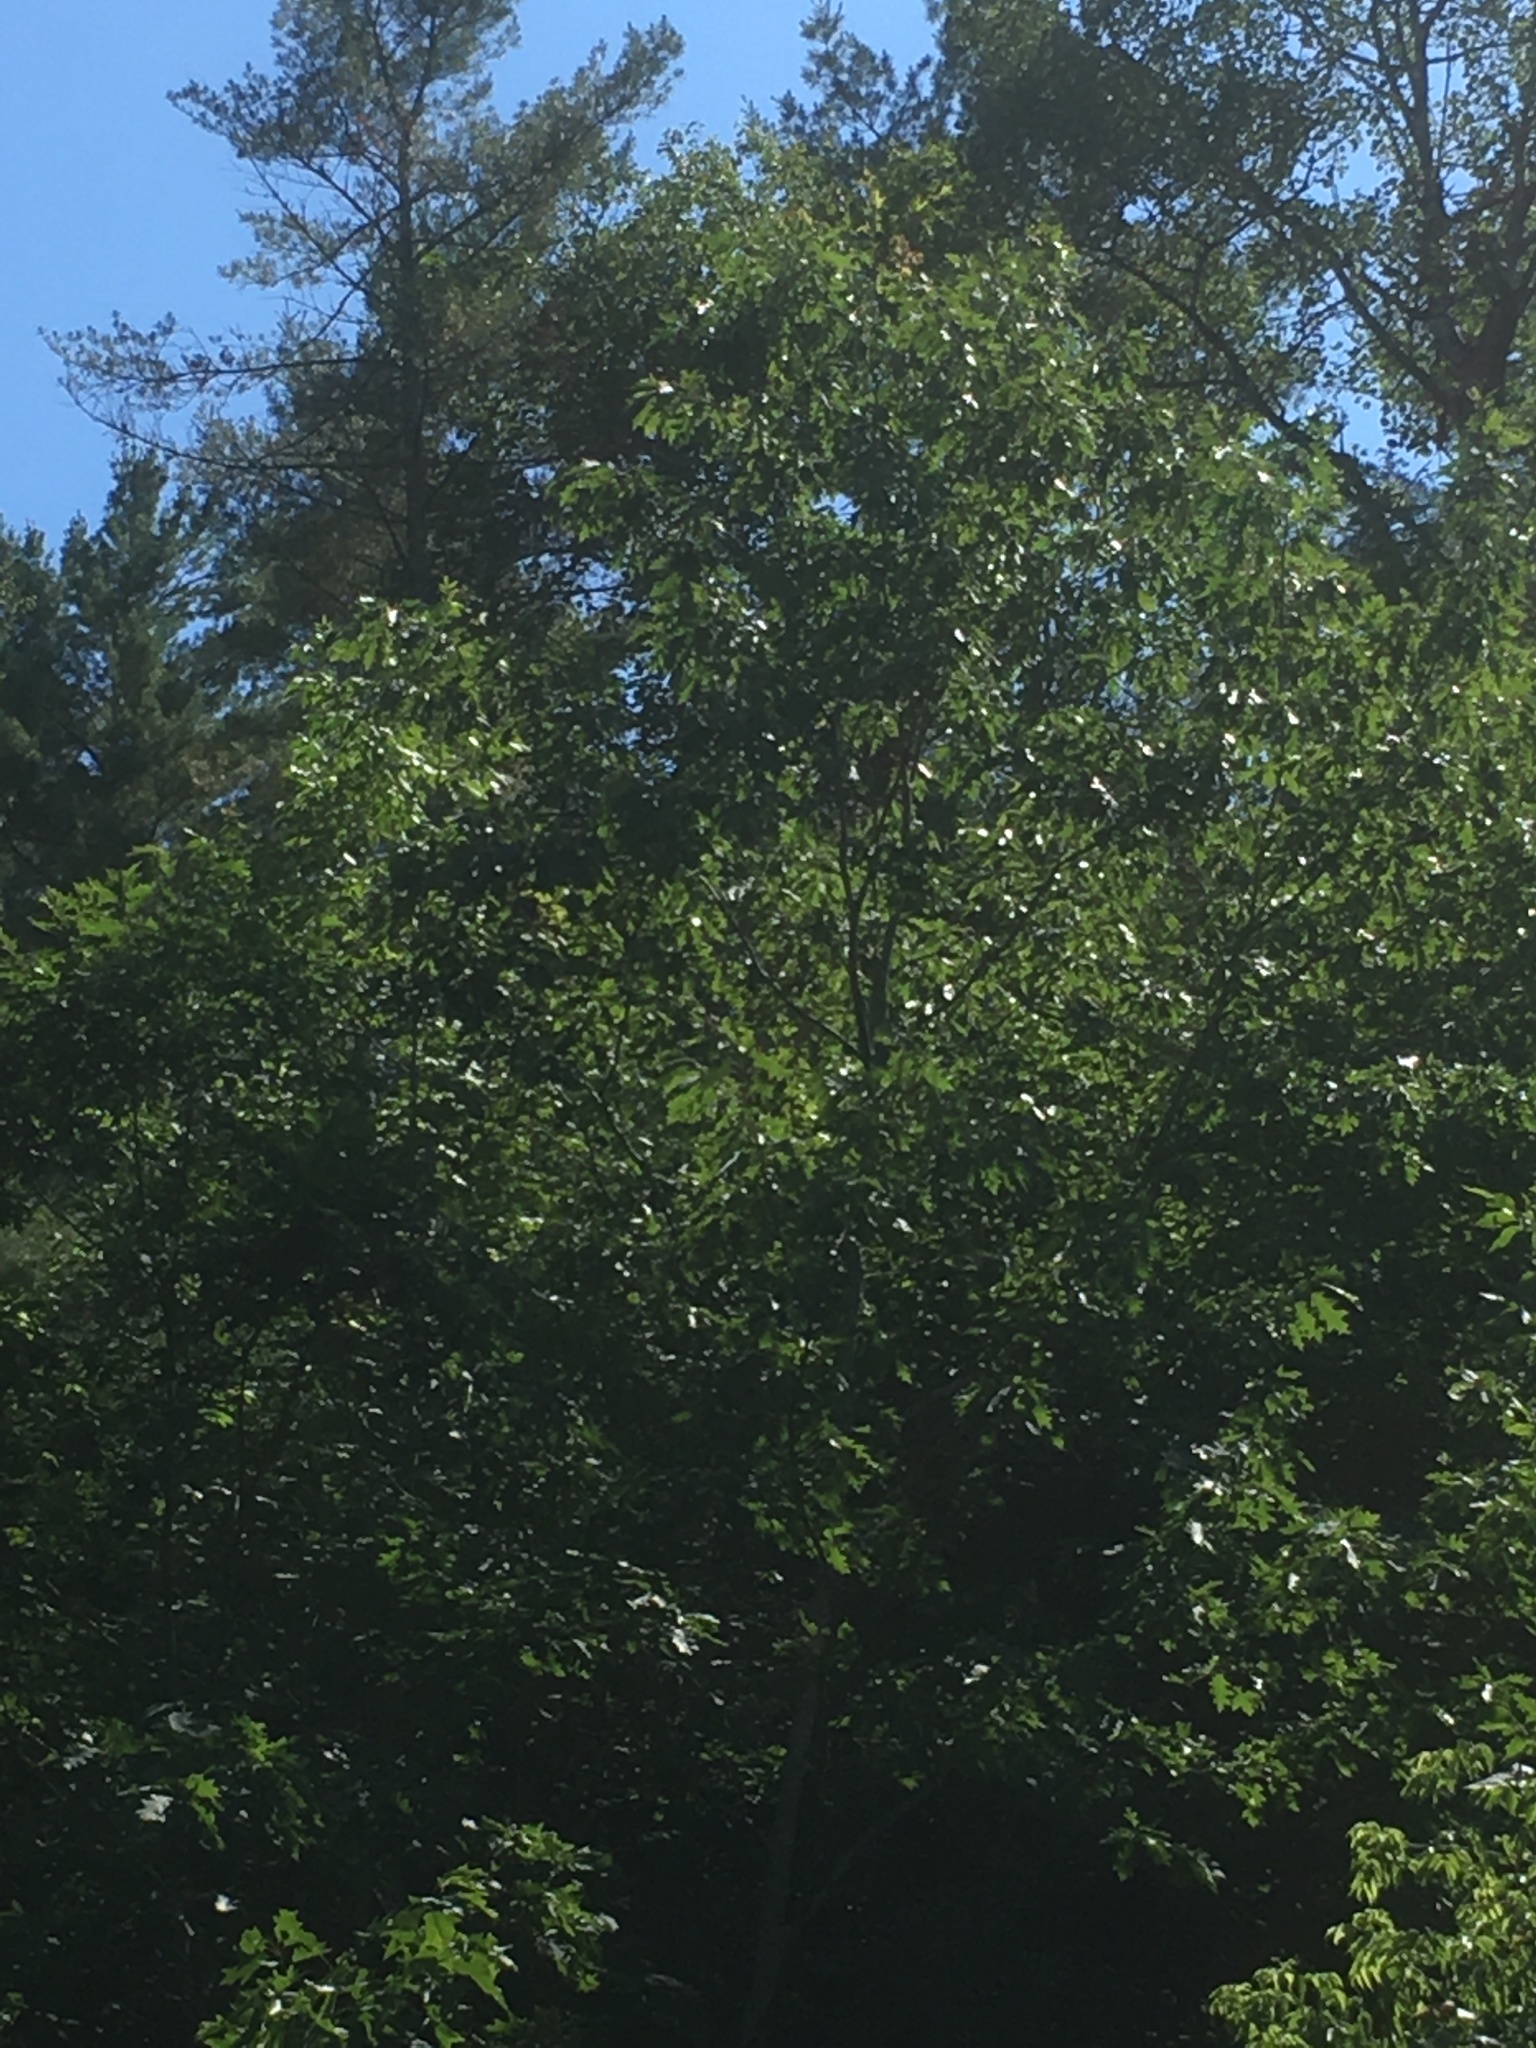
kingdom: Plantae
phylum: Tracheophyta
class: Magnoliopsida
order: Fagales
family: Fagaceae
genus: Quercus
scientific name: Quercus rubra
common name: Red oak
